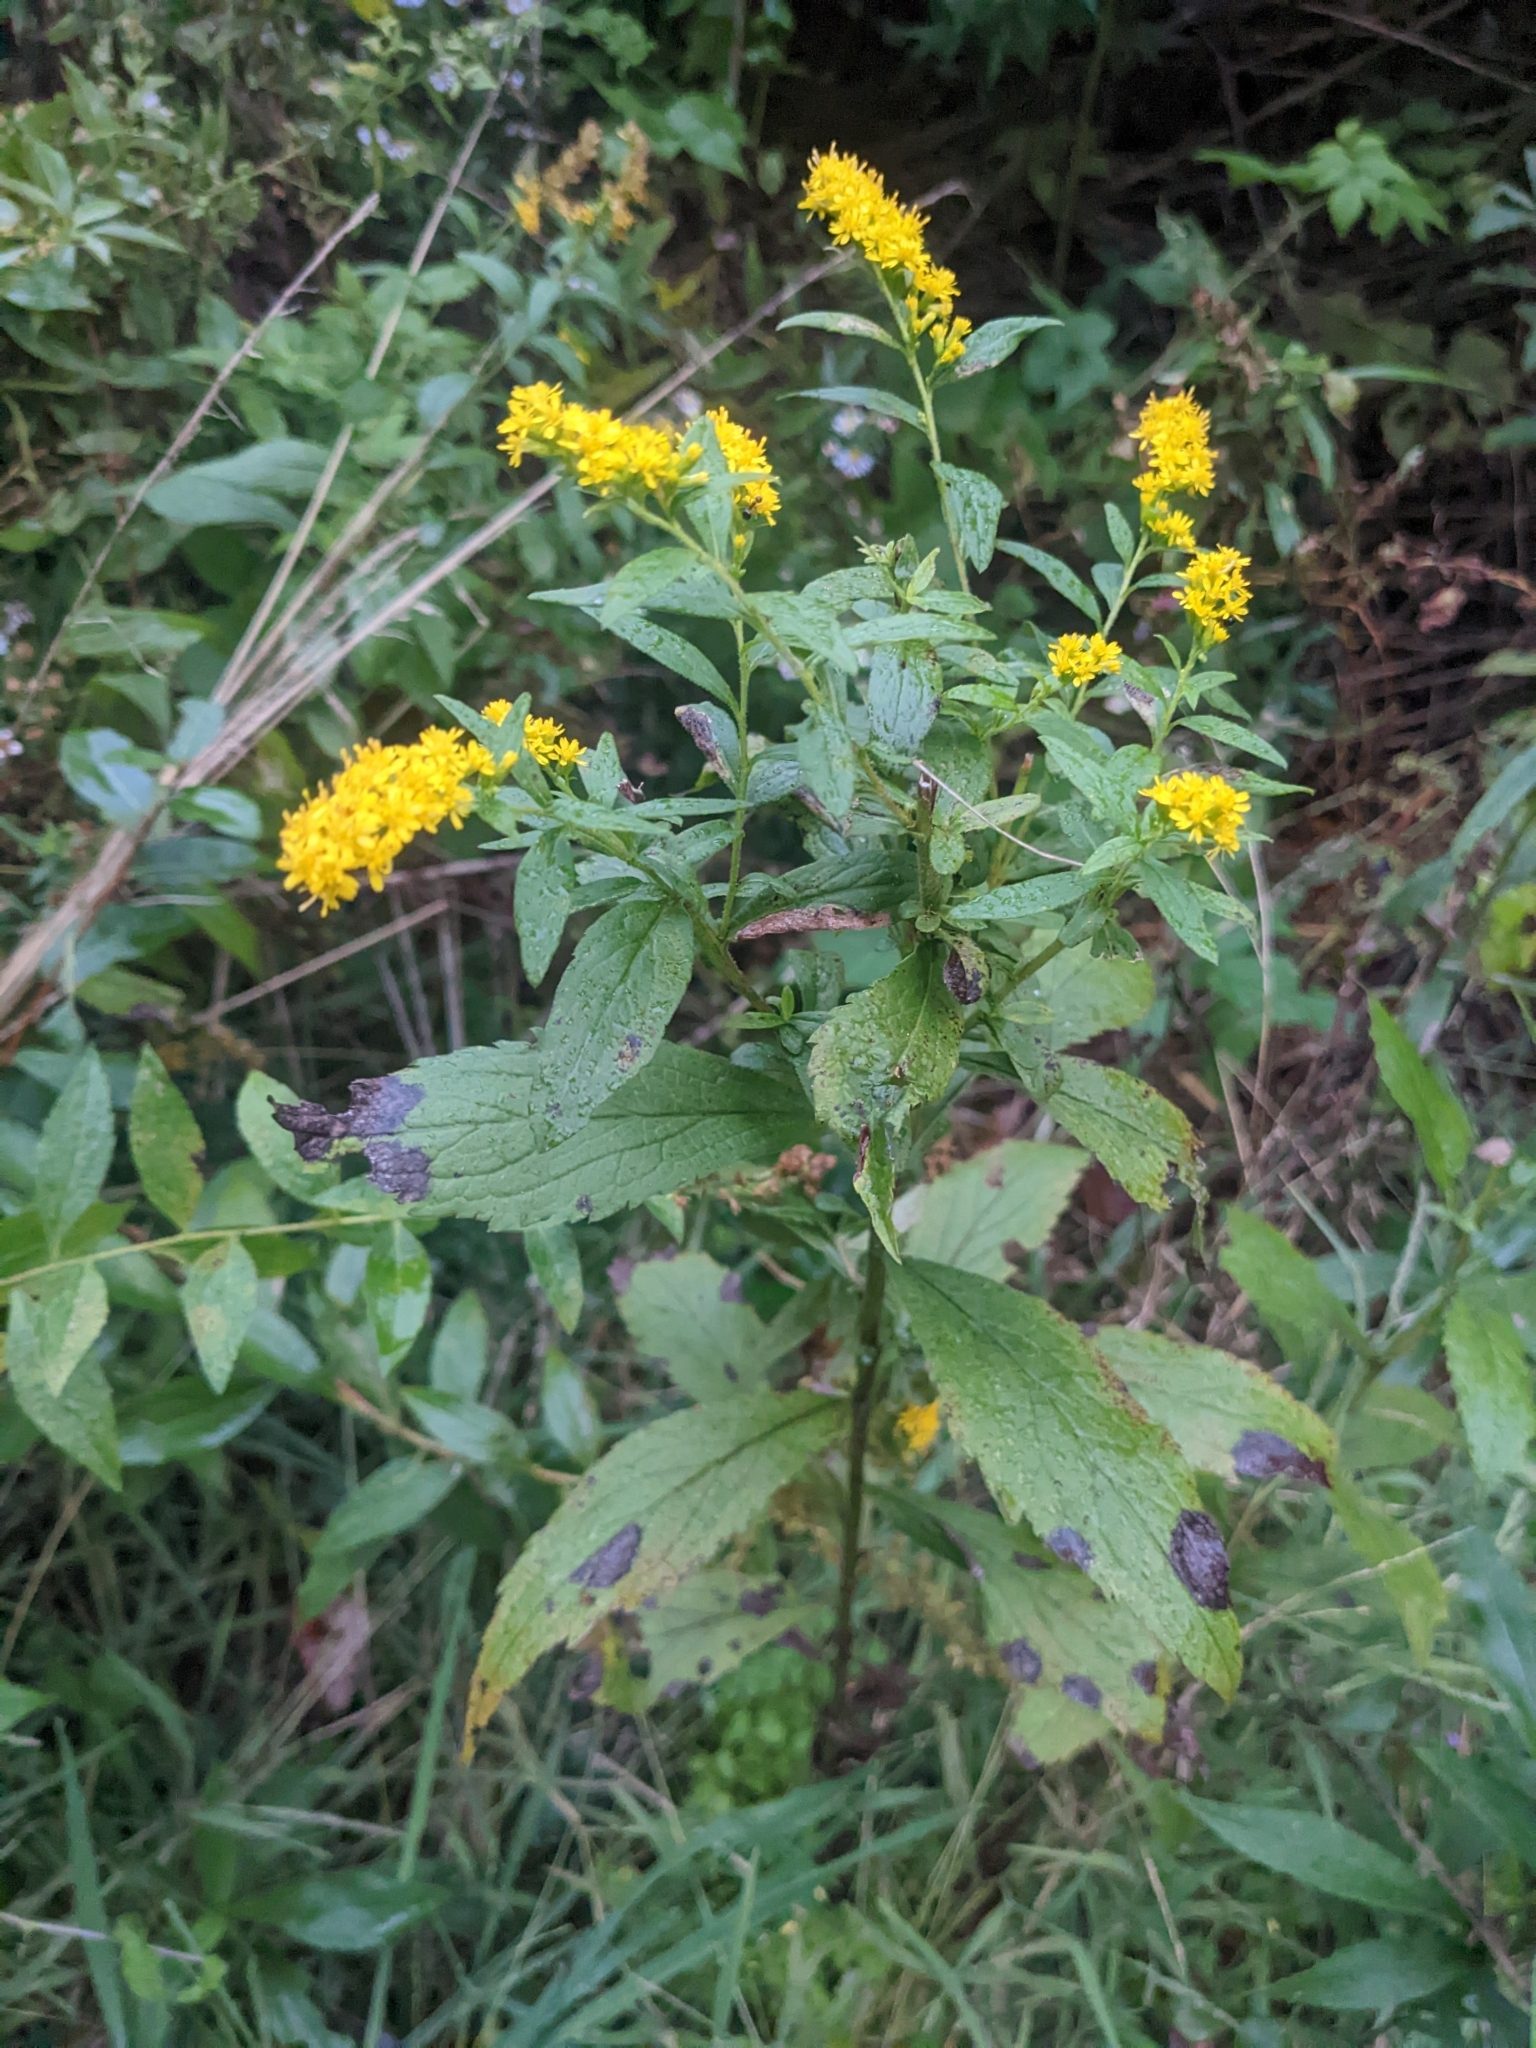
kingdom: Plantae
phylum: Tracheophyta
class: Magnoliopsida
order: Asterales
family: Asteraceae
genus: Solidago
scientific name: Solidago rugosa
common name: Rough-stemmed goldenrod
